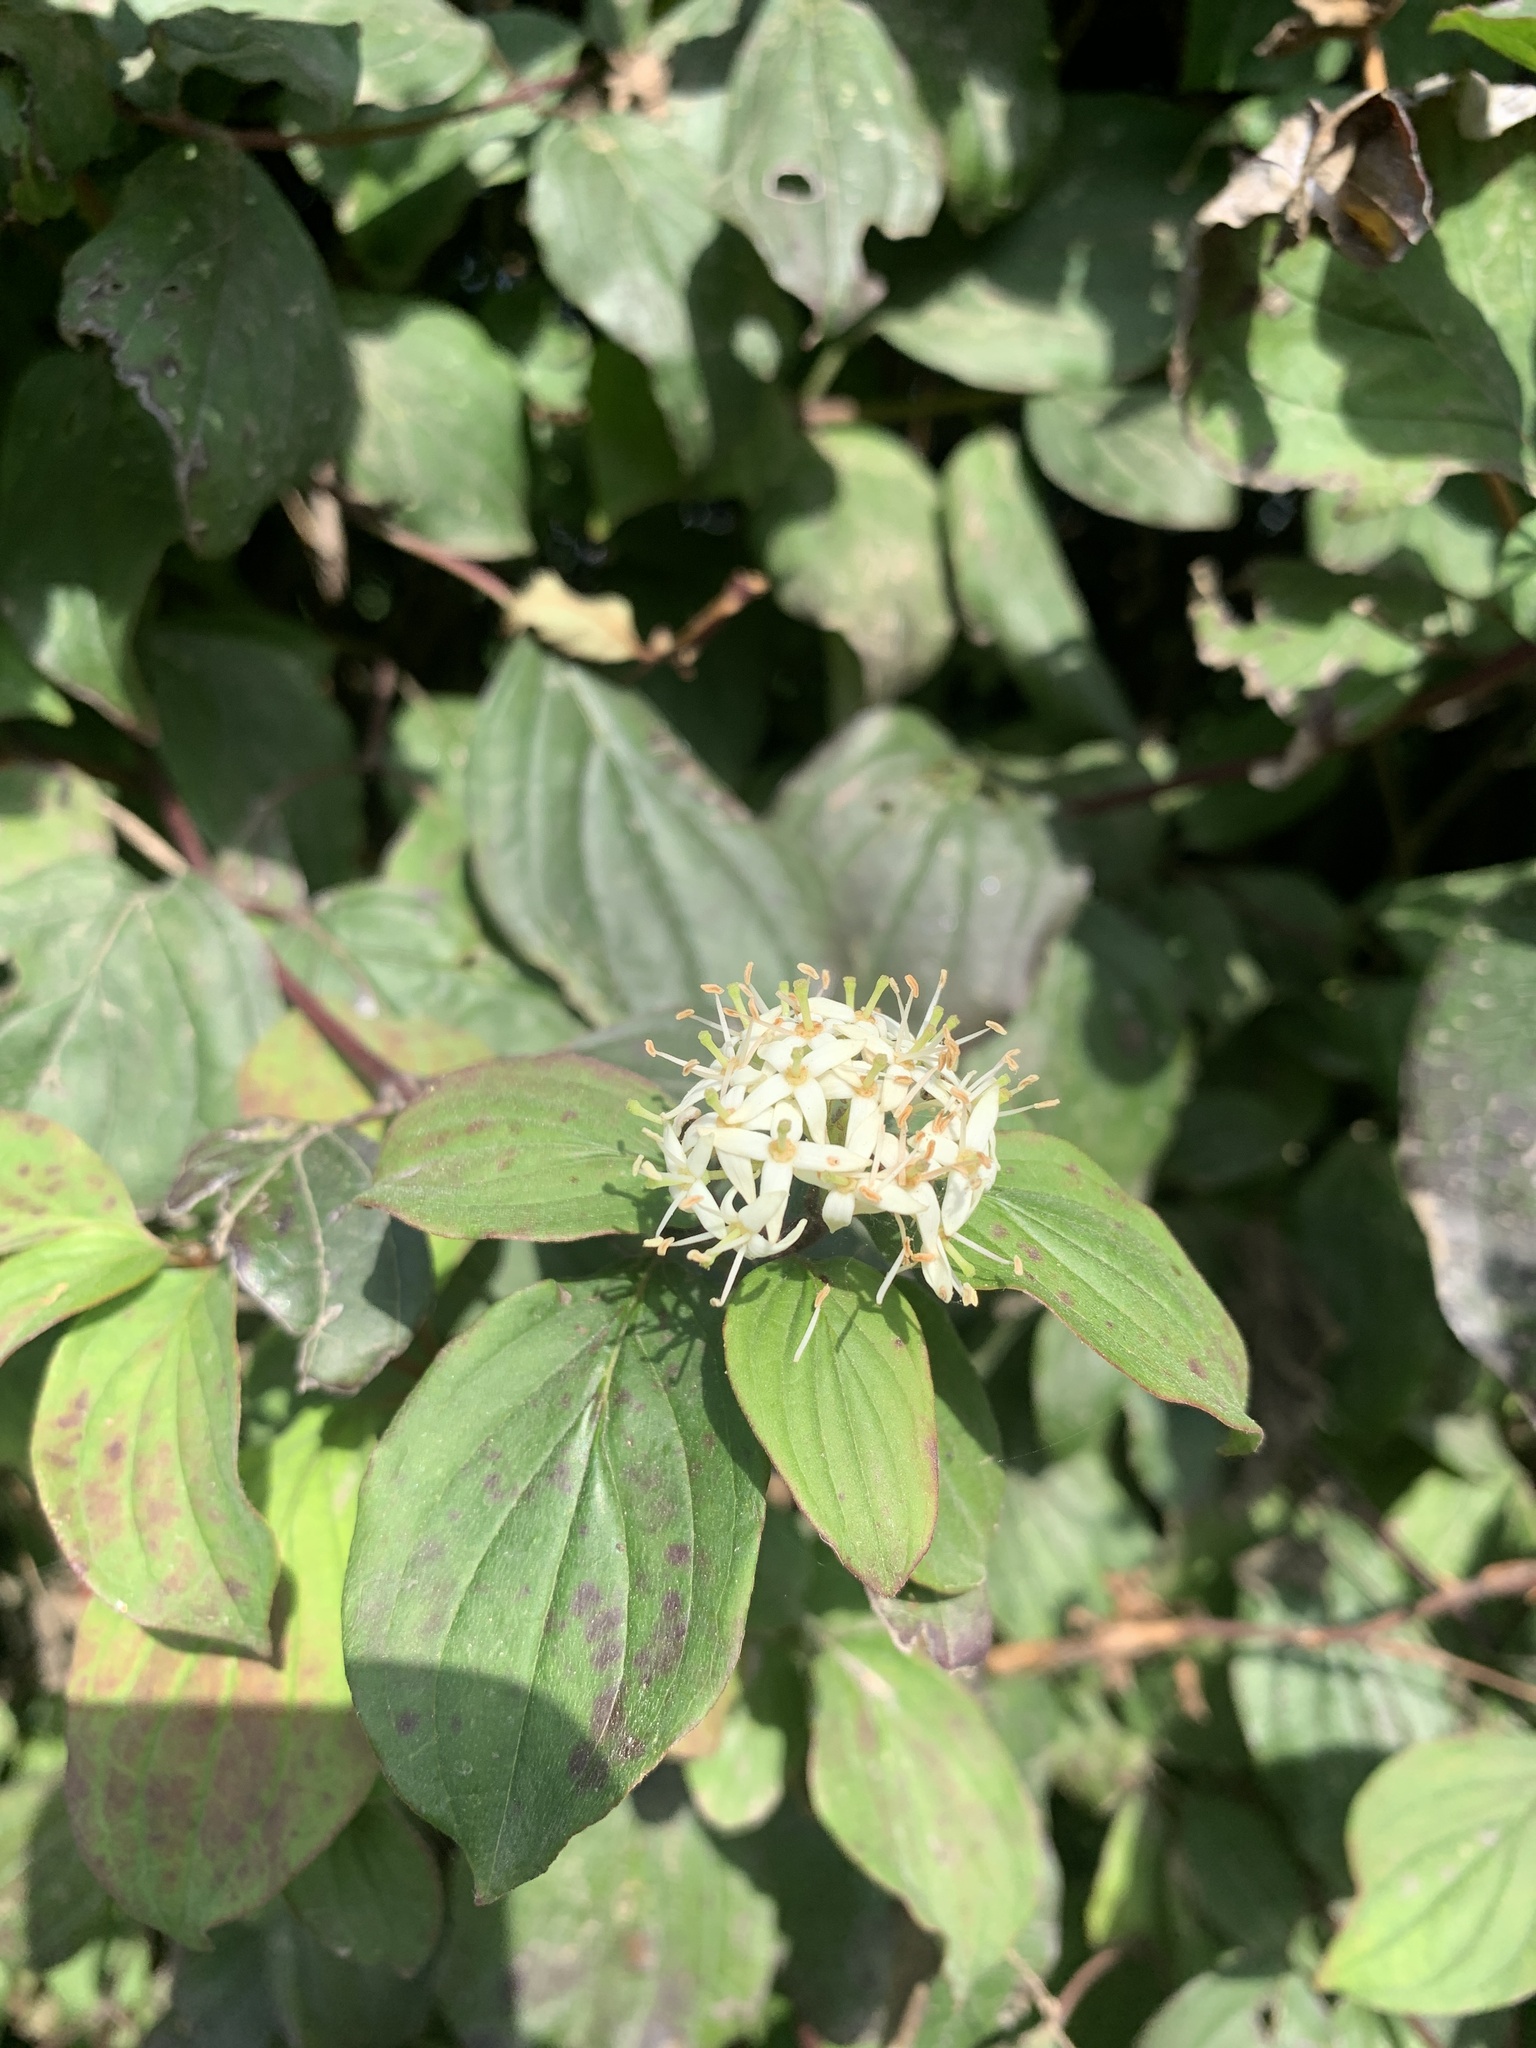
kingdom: Plantae
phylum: Tracheophyta
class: Magnoliopsida
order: Cornales
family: Cornaceae
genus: Cornus
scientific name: Cornus sanguinea
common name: Dogwood
